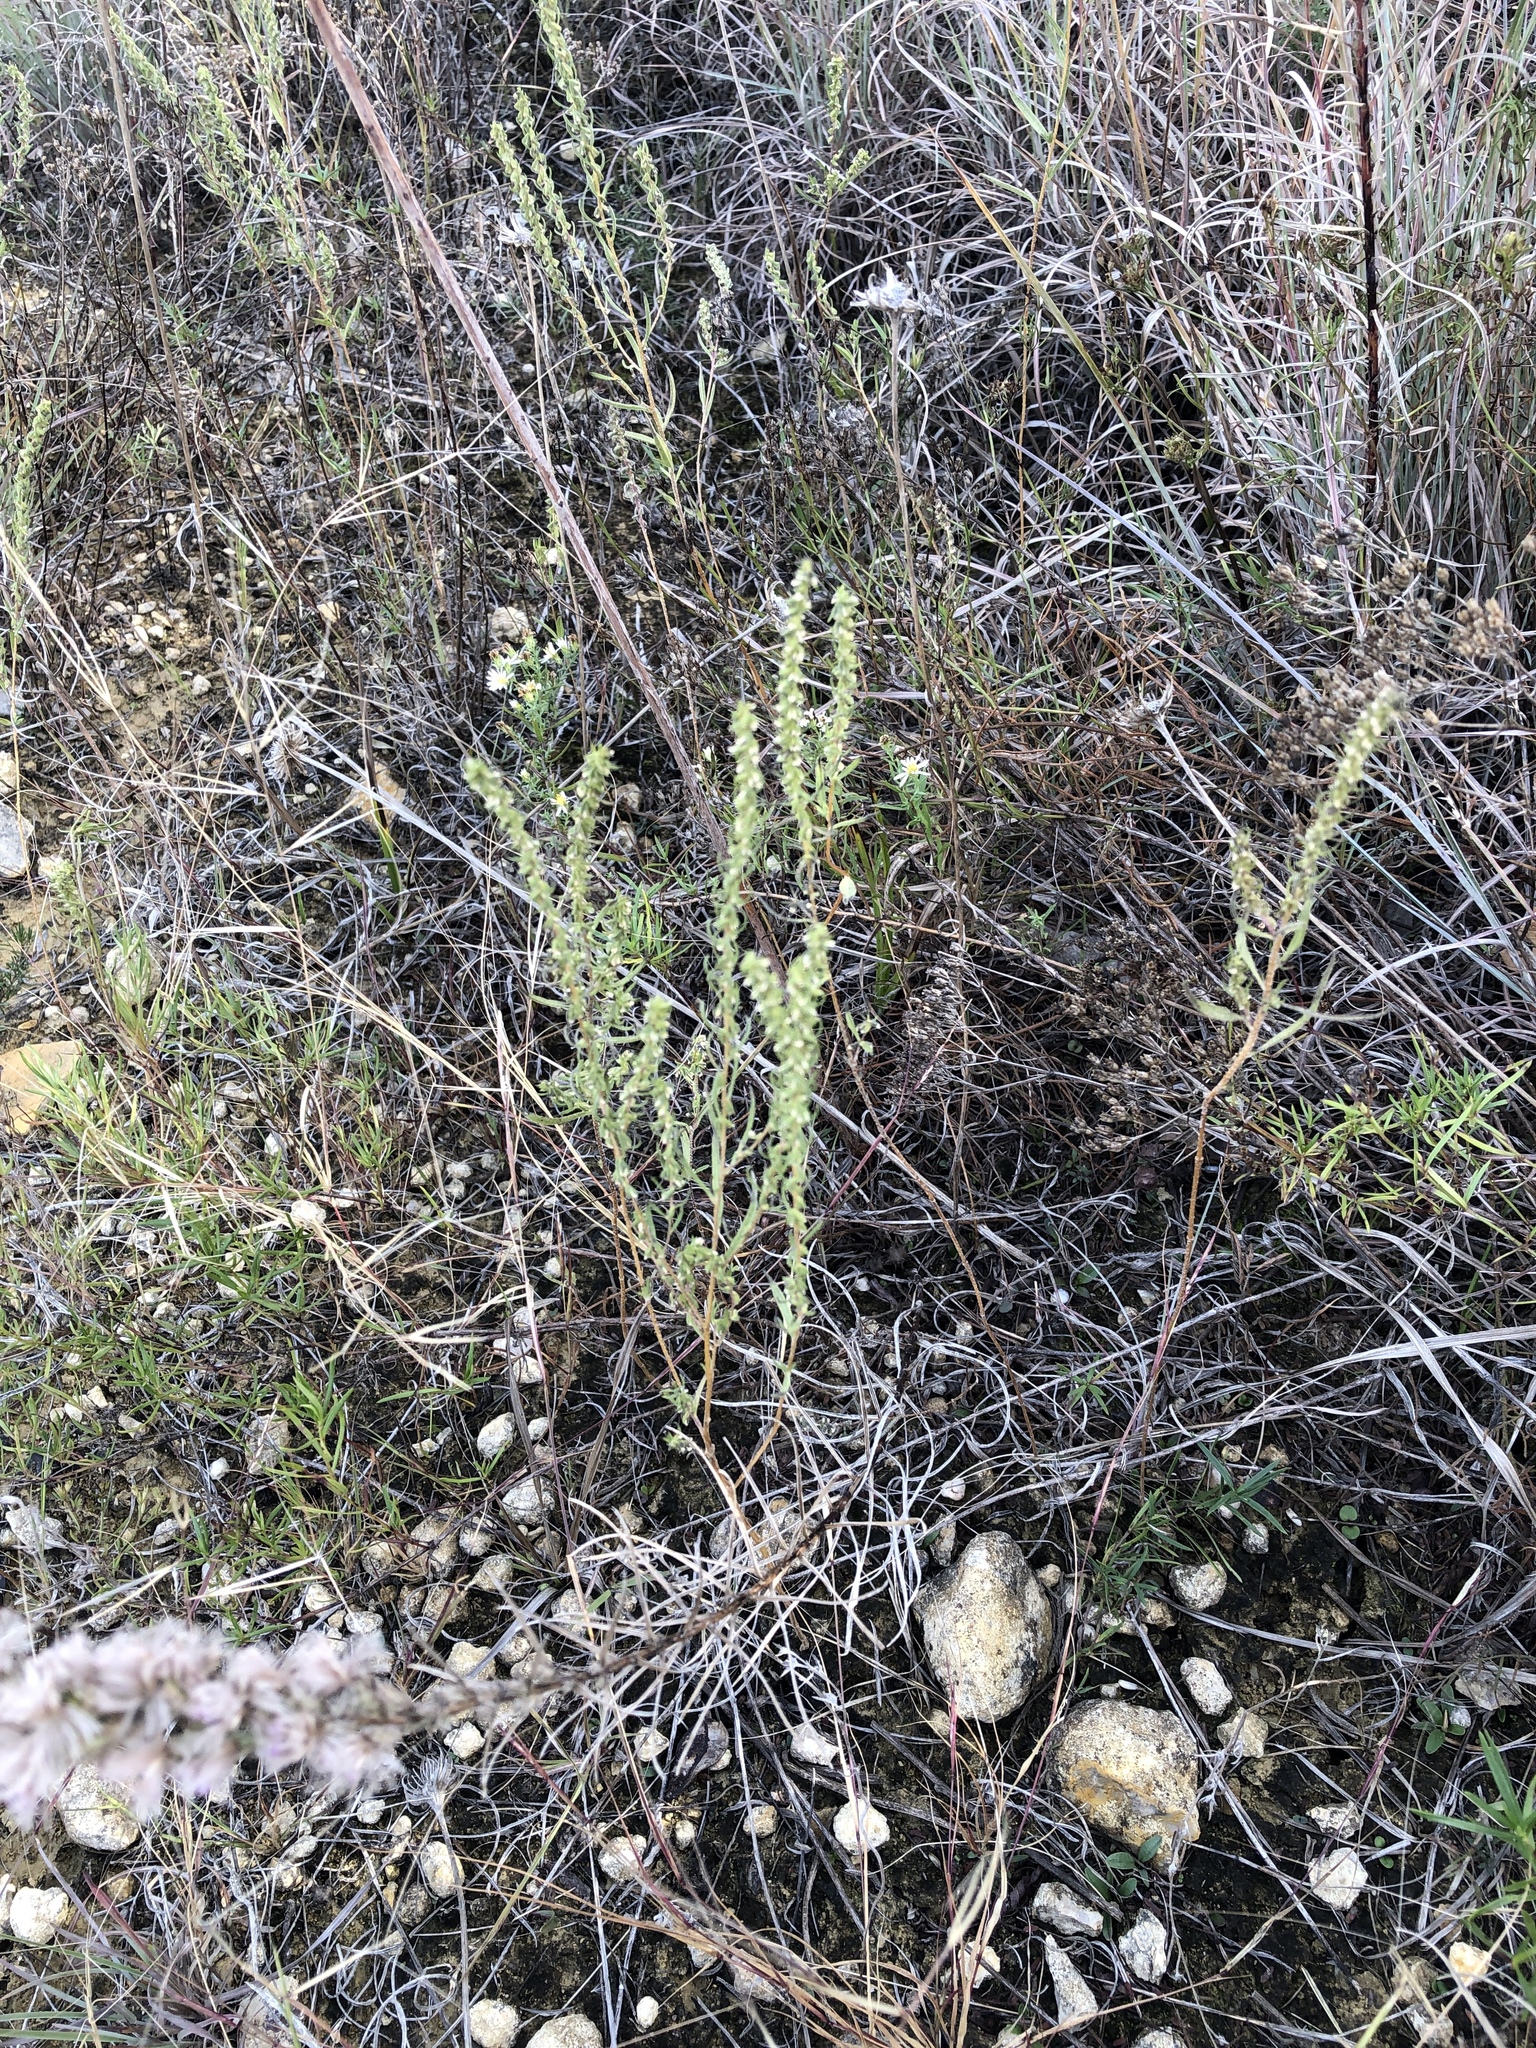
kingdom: Plantae
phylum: Tracheophyta
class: Magnoliopsida
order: Asterales
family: Asteraceae
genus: Iva
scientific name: Iva asperifolia
